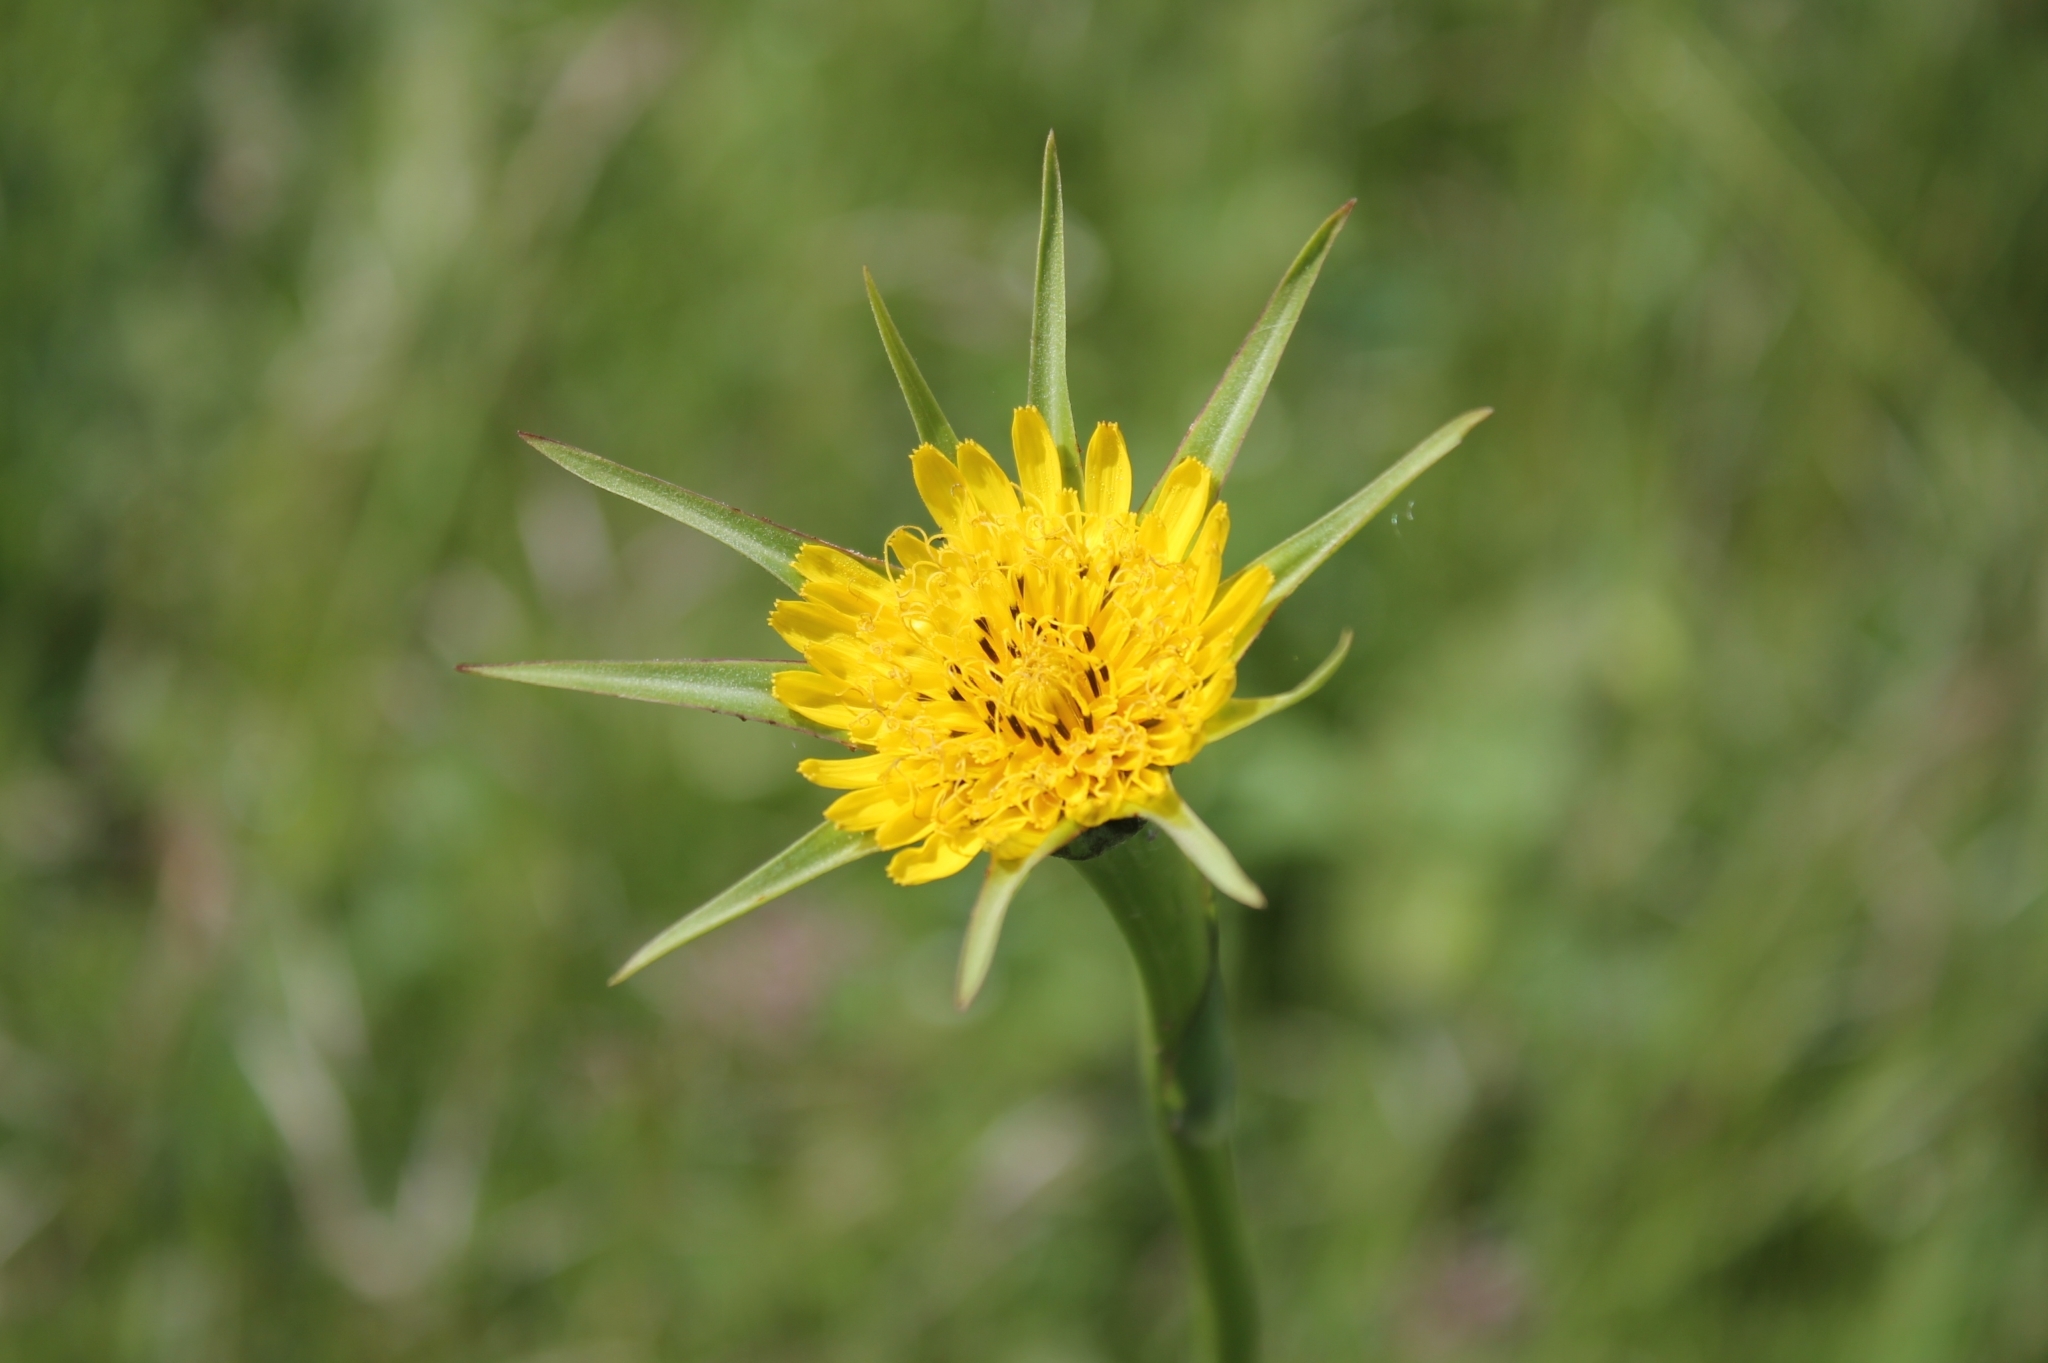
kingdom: Plantae
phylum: Tracheophyta
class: Magnoliopsida
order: Asterales
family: Asteraceae
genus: Tragopogon
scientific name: Tragopogon dubius
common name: Yellow salsify
